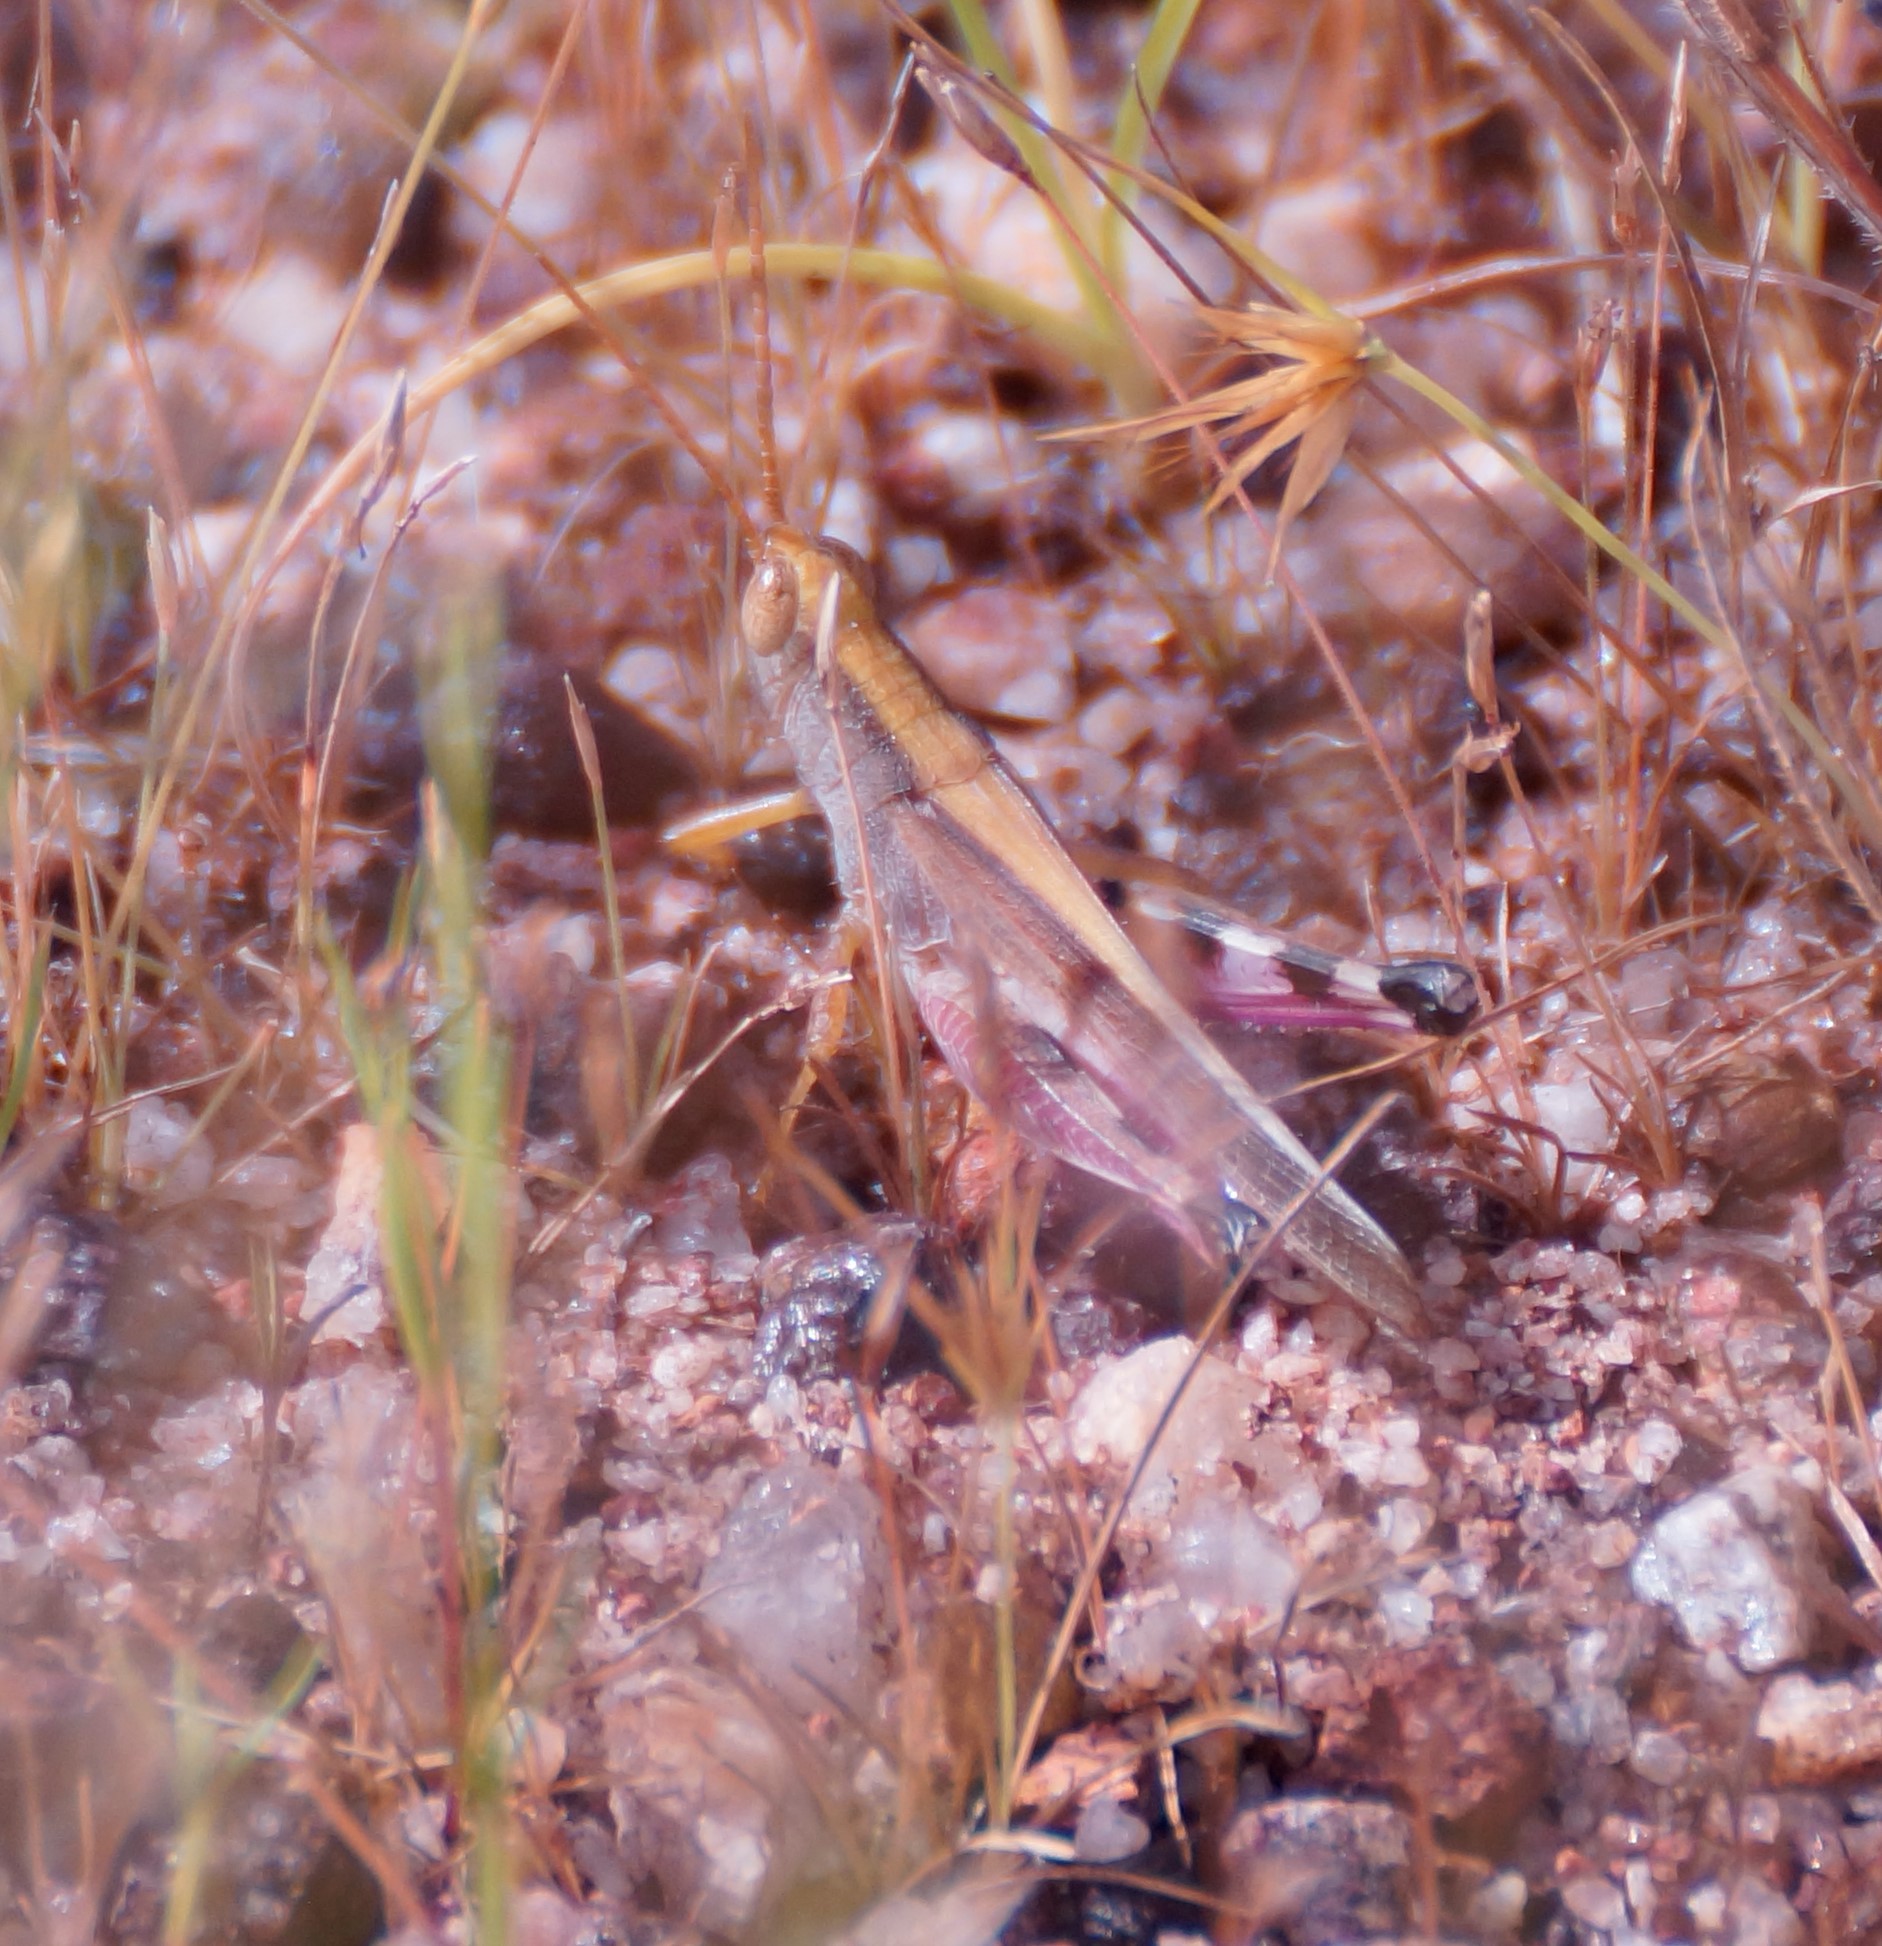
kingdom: Animalia
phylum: Arthropoda
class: Insecta
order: Orthoptera
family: Acrididae
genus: Pseudaiolopus
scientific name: Pseudaiolopus keyi
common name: Key's bandwing
